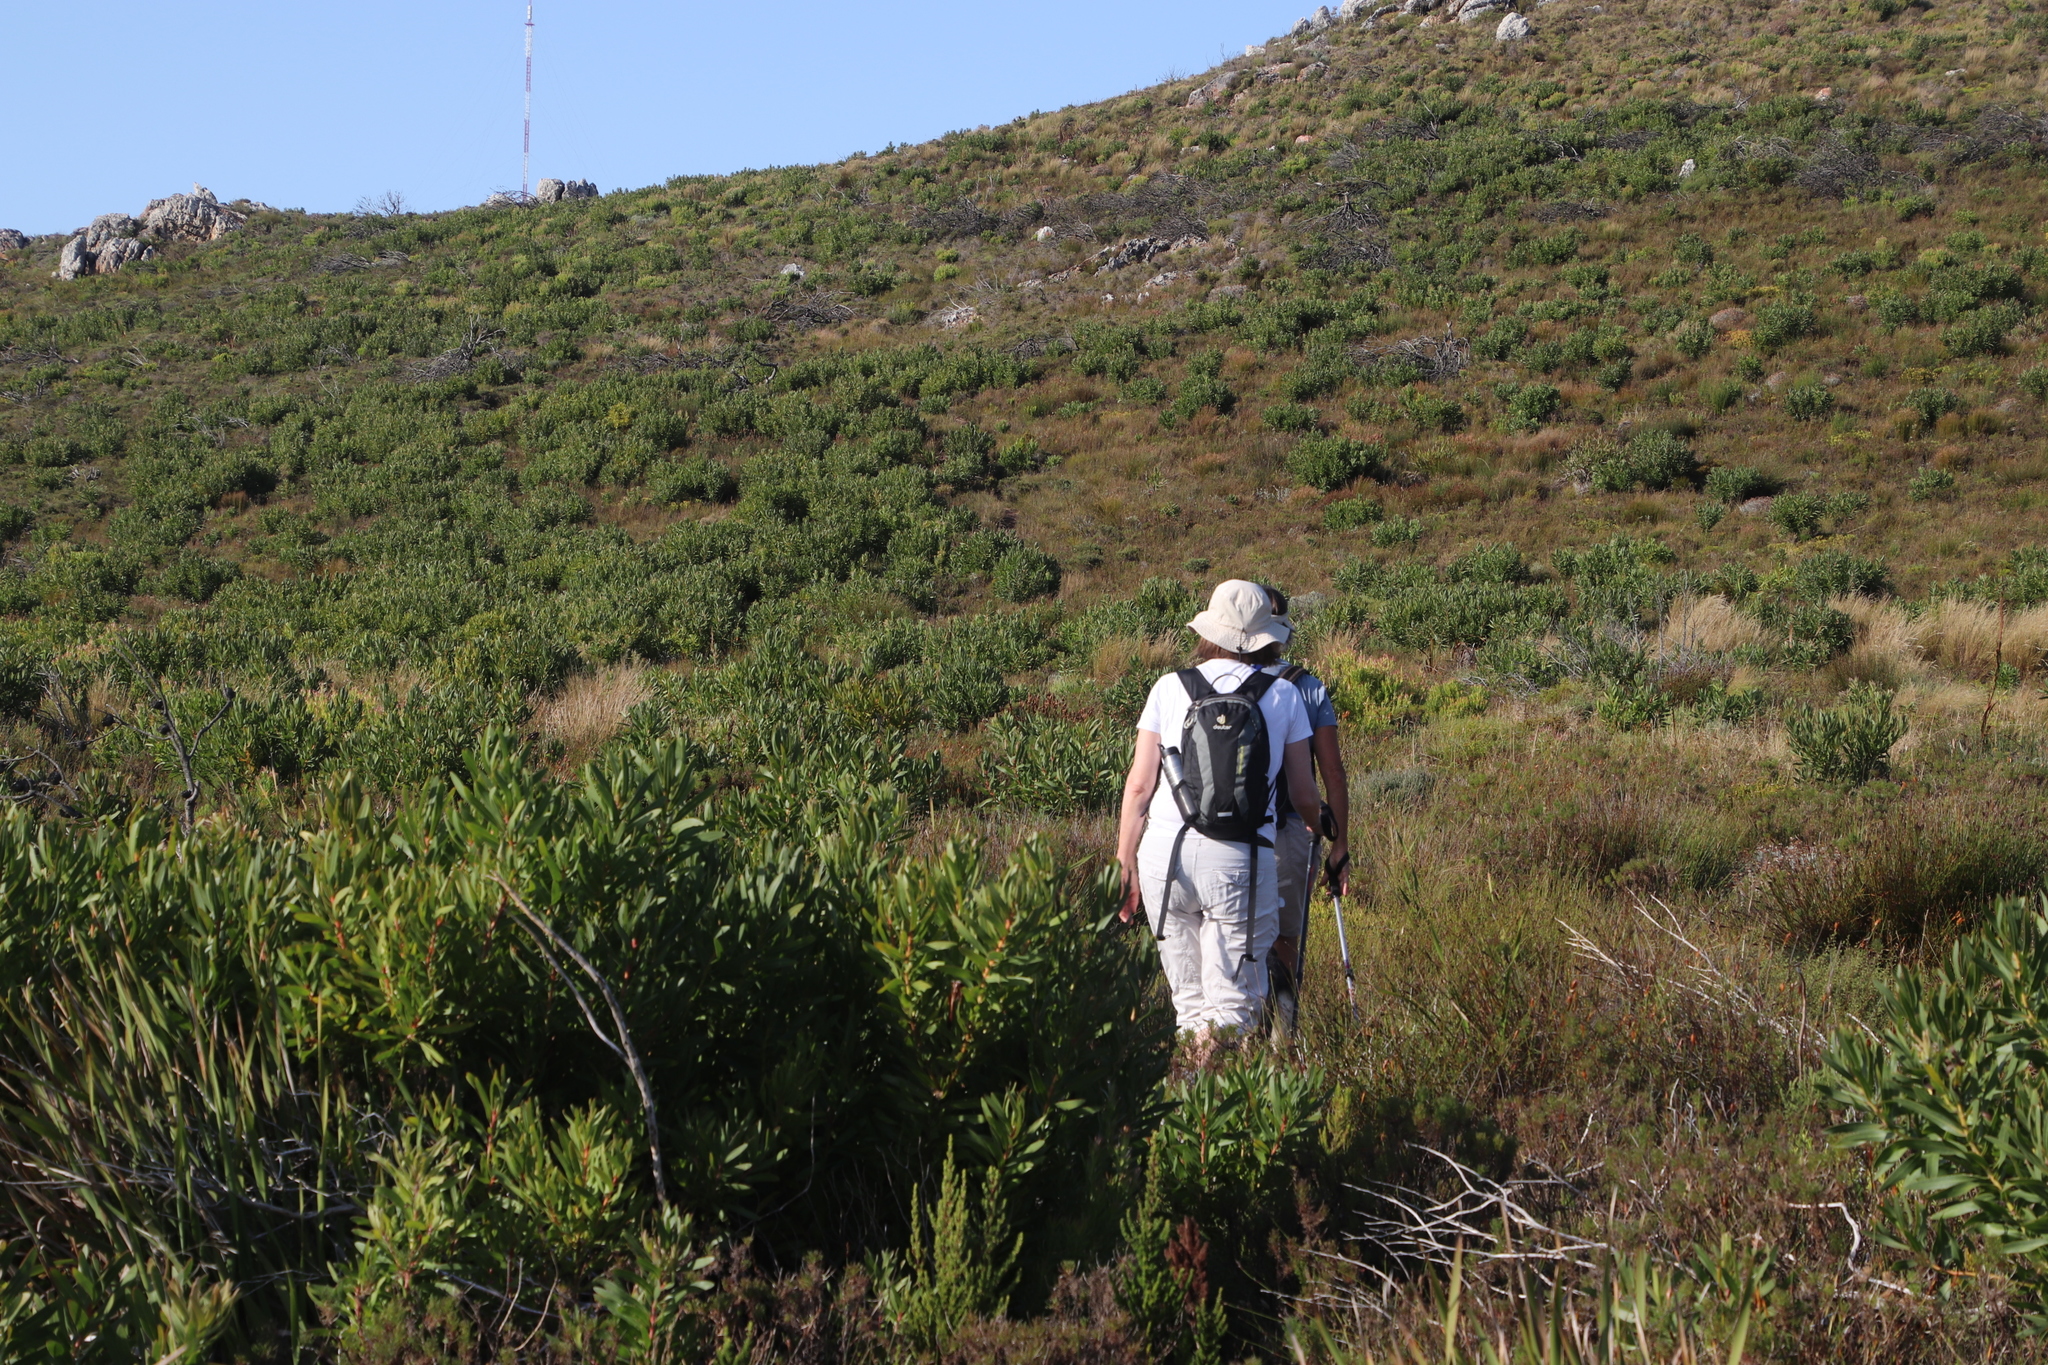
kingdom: Plantae
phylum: Tracheophyta
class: Magnoliopsida
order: Proteales
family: Proteaceae
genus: Protea
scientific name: Protea lepidocarpodendron
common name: Black-bearded protea
